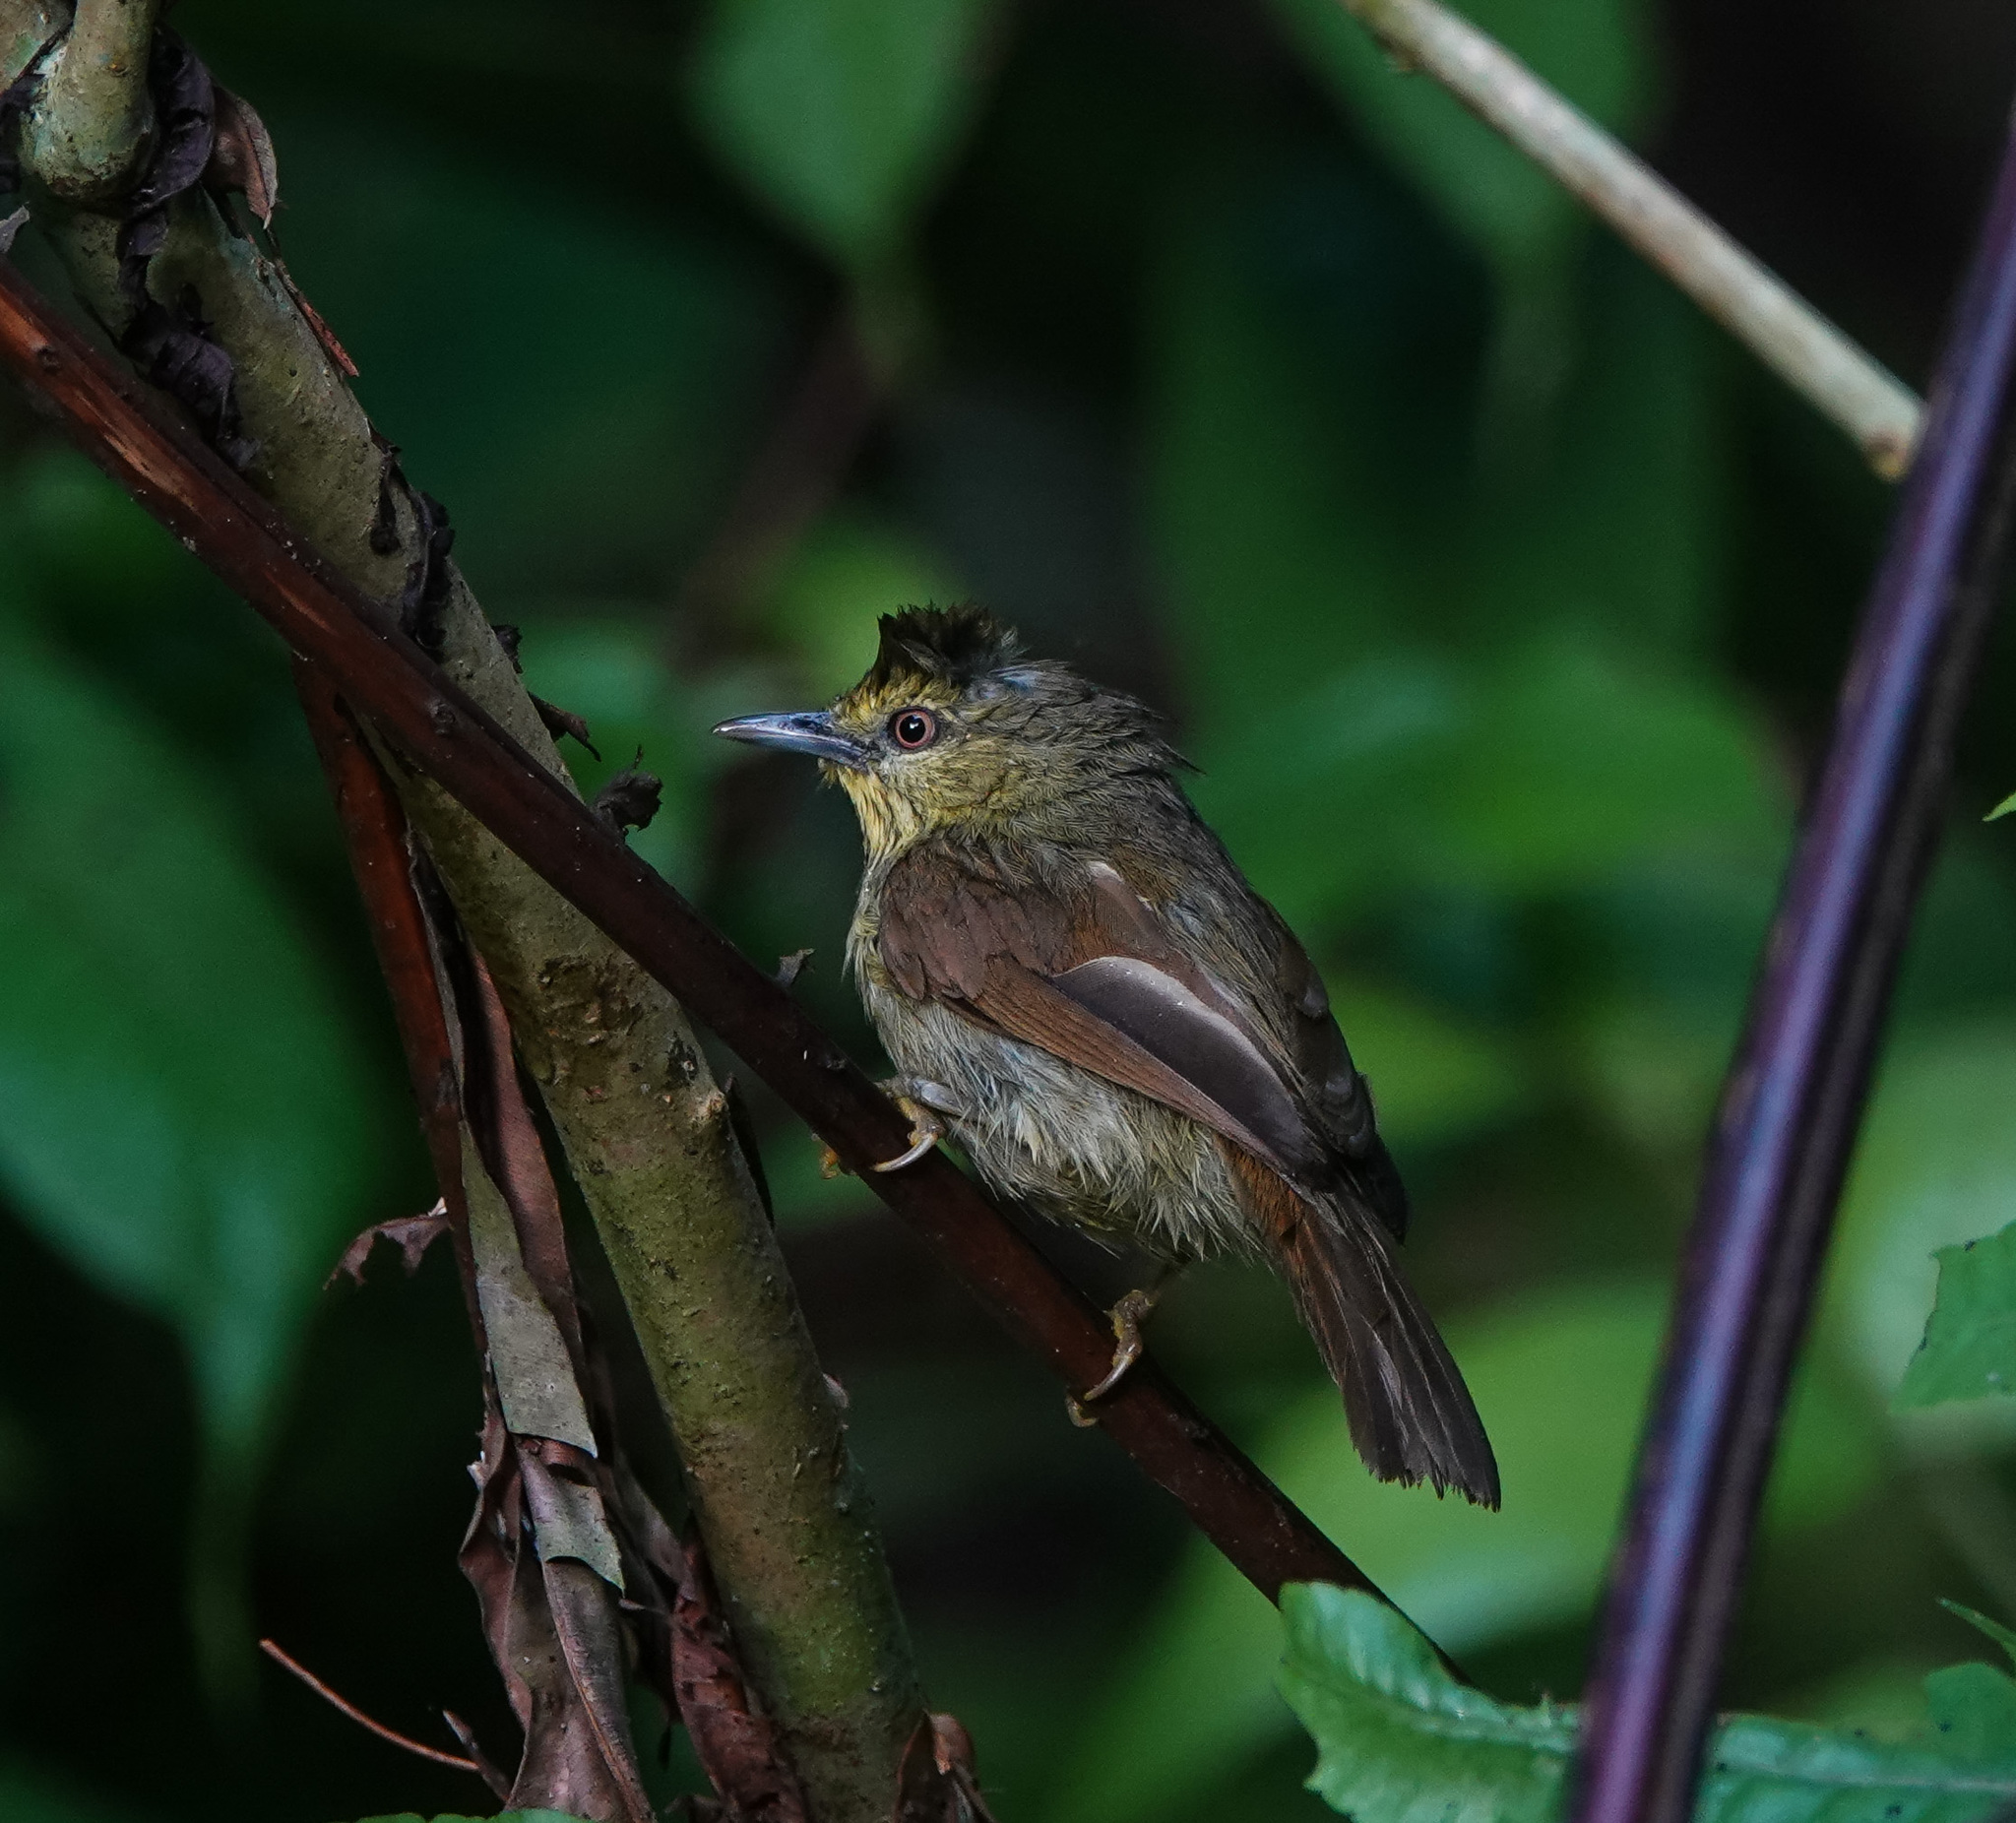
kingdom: Animalia
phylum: Chordata
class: Aves
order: Passeriformes
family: Timaliidae
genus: Macronus
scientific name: Macronus gularis
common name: Striped tit-babbler
